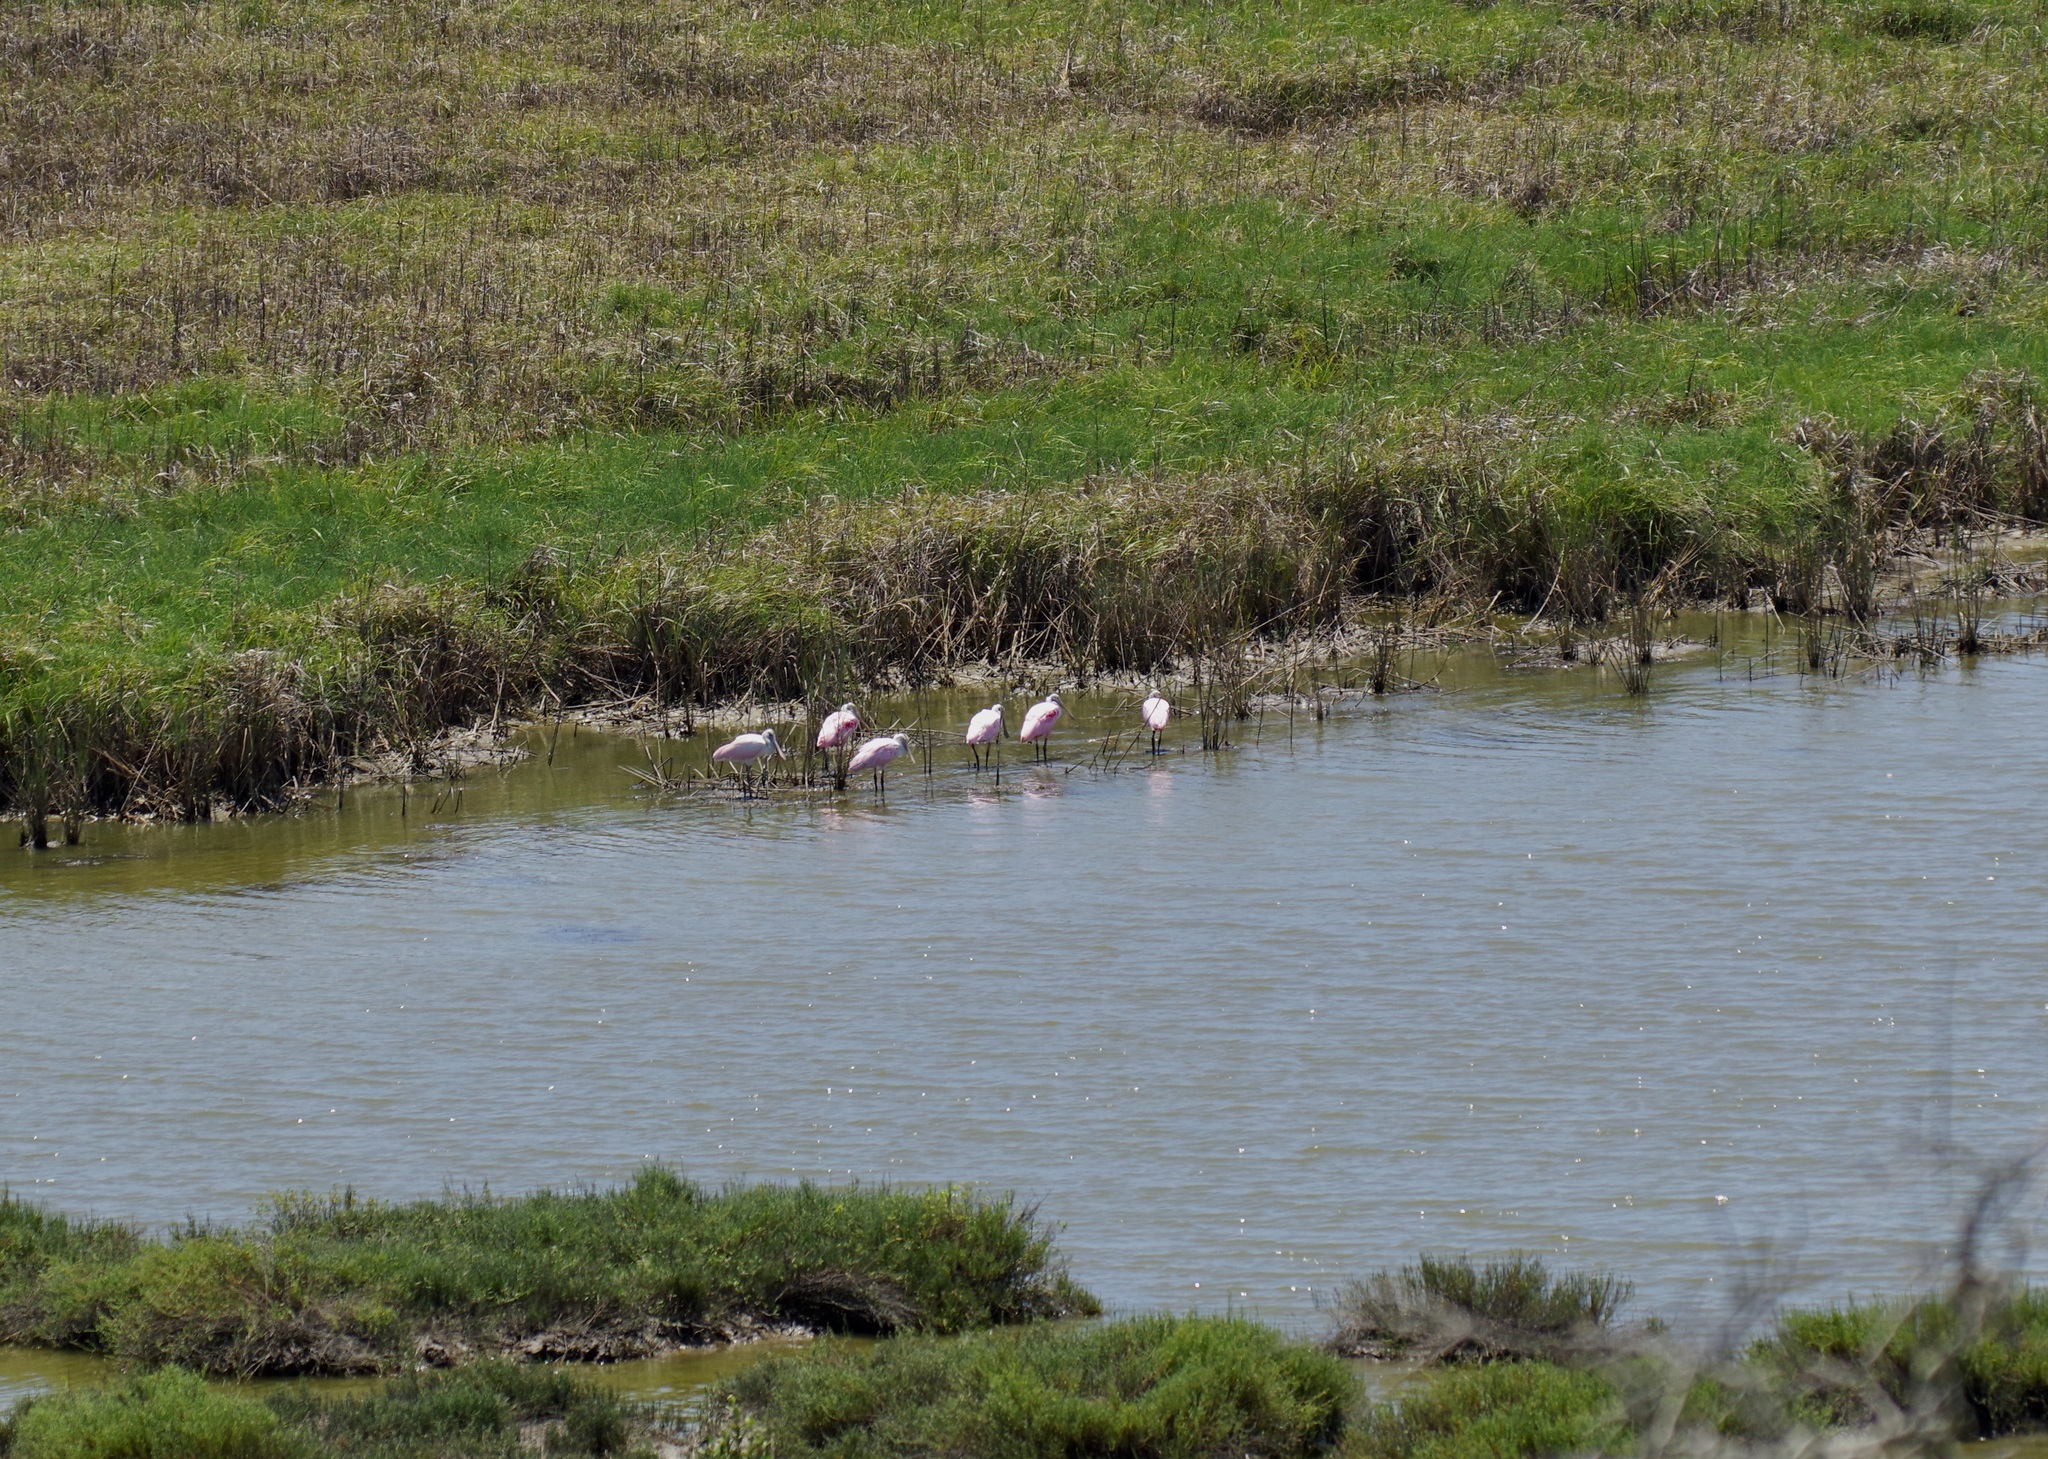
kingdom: Animalia
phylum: Chordata
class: Aves
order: Pelecaniformes
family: Threskiornithidae
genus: Platalea
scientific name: Platalea ajaja
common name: Roseate spoonbill
